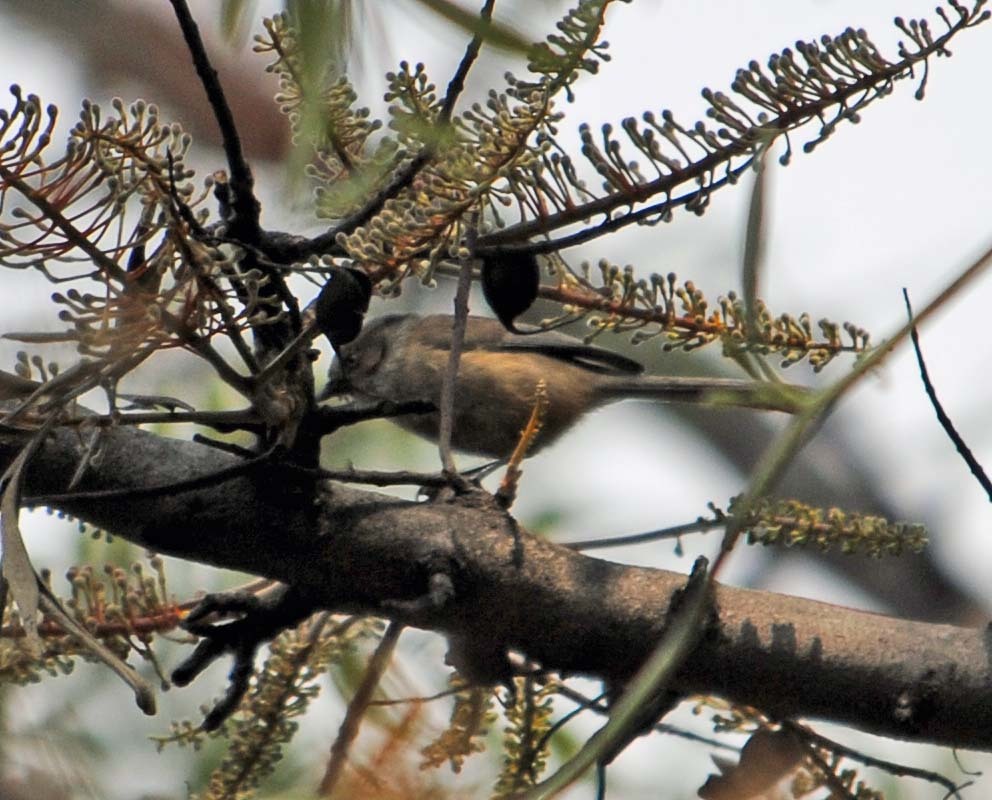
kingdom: Animalia
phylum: Chordata
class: Aves
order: Passeriformes
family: Aegithalidae
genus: Psaltriparus
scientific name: Psaltriparus minimus
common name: American bushtit
